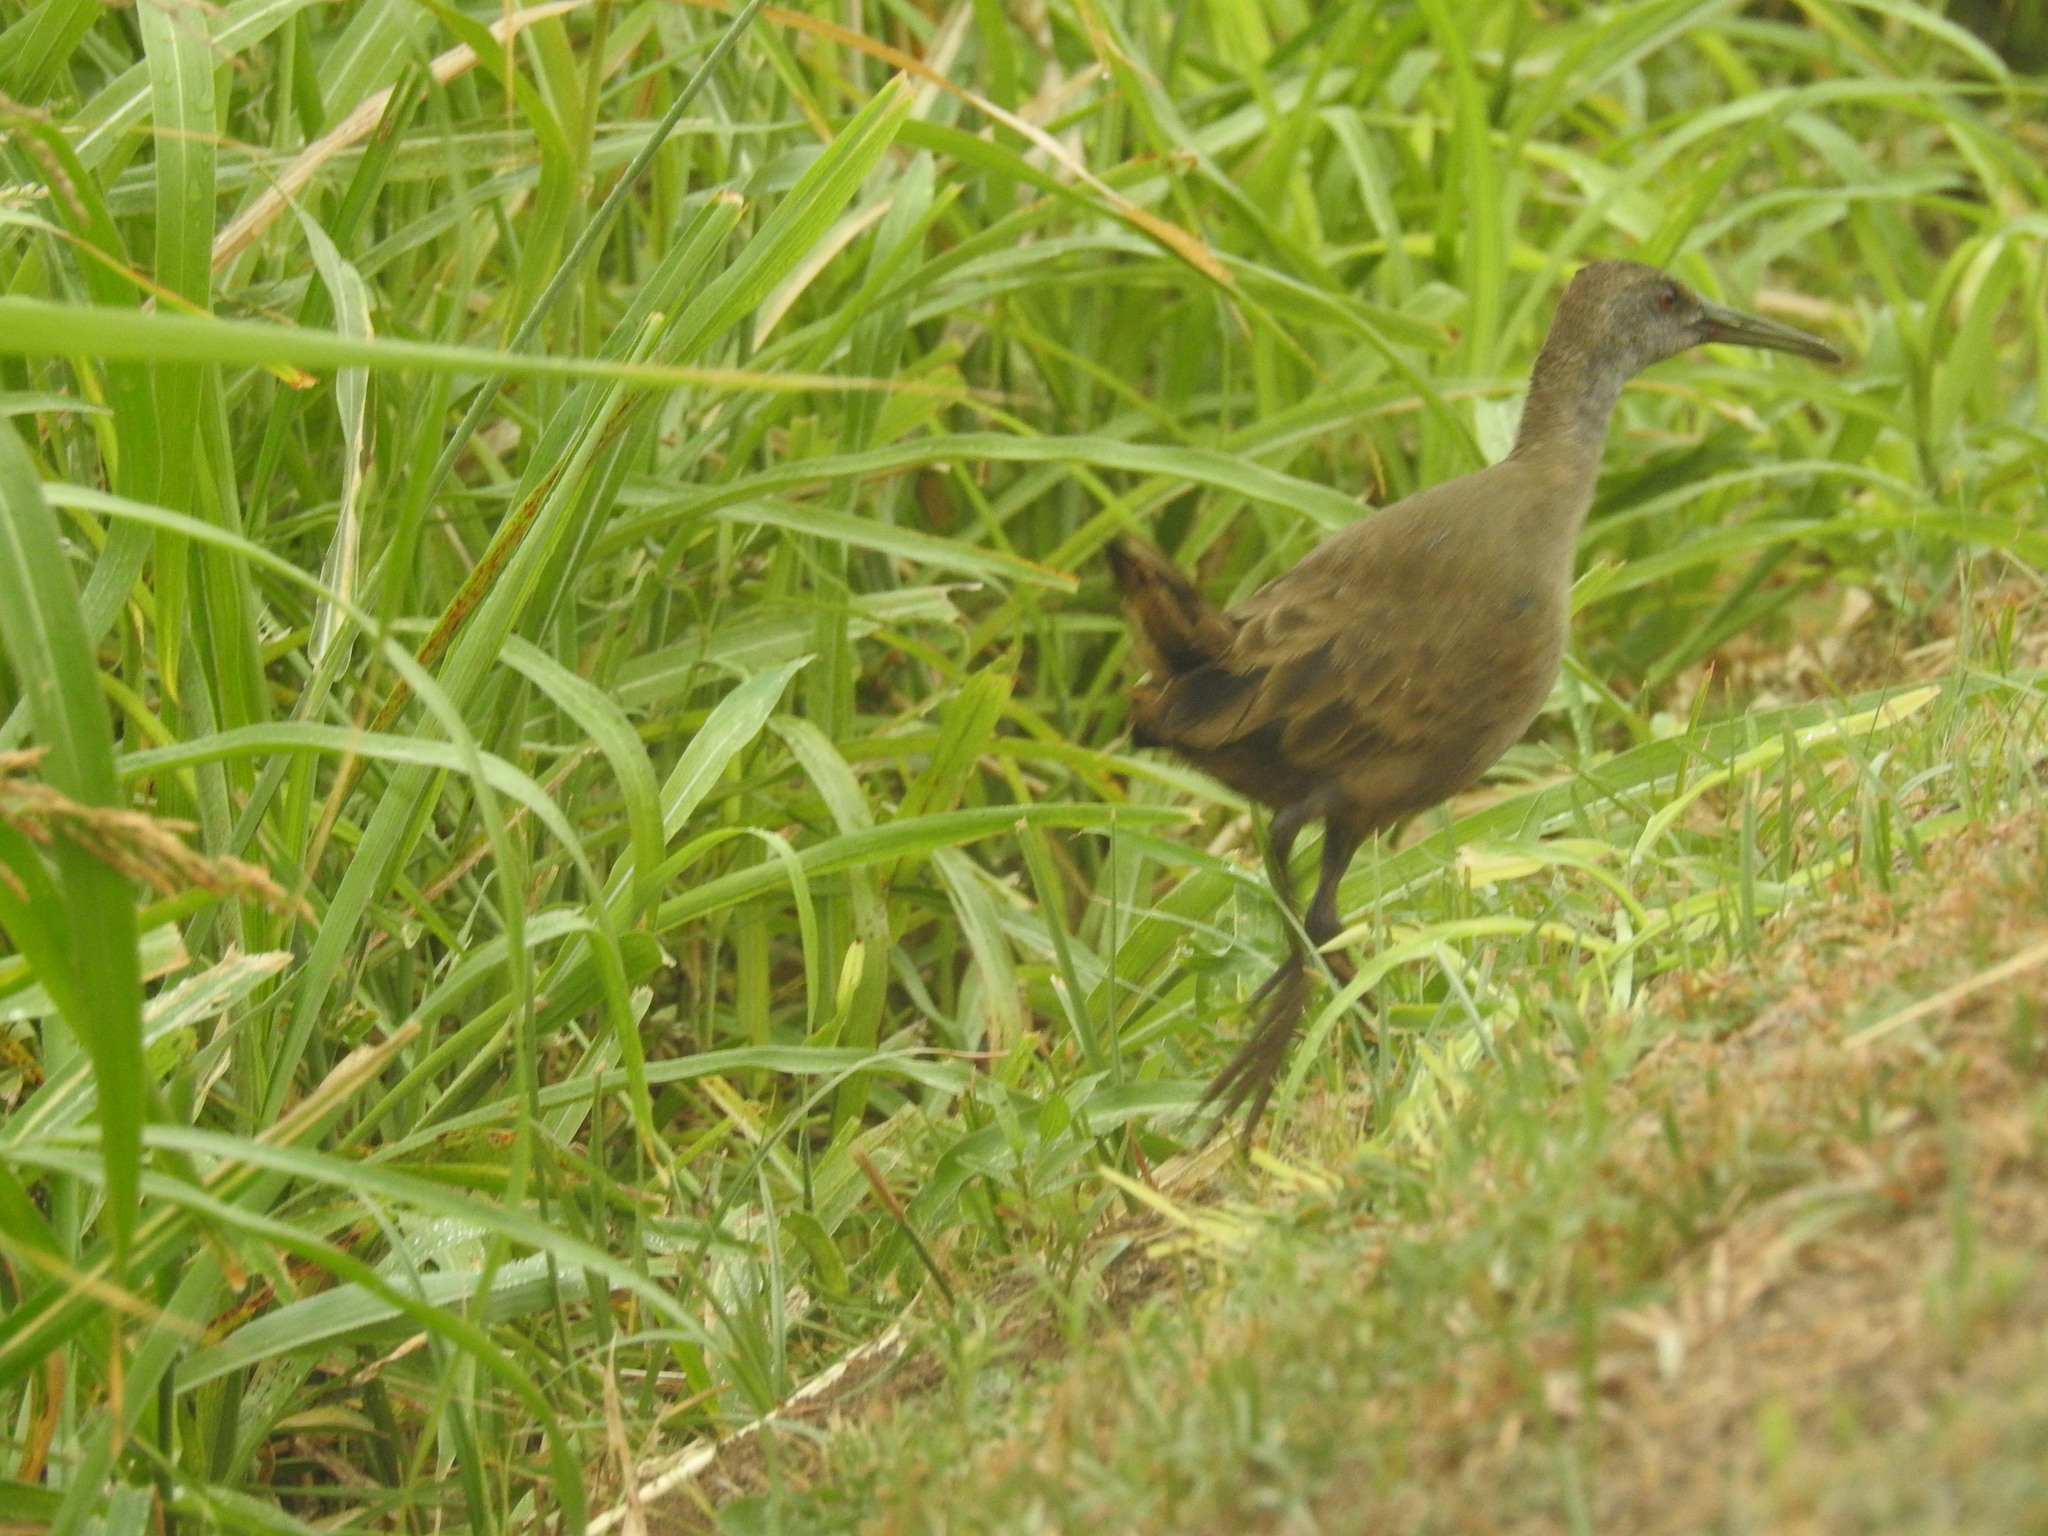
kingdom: Animalia
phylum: Chordata
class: Aves
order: Gruiformes
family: Rallidae
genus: Pardirallus
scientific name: Pardirallus sanguinolentus
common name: Plumbeous rail
